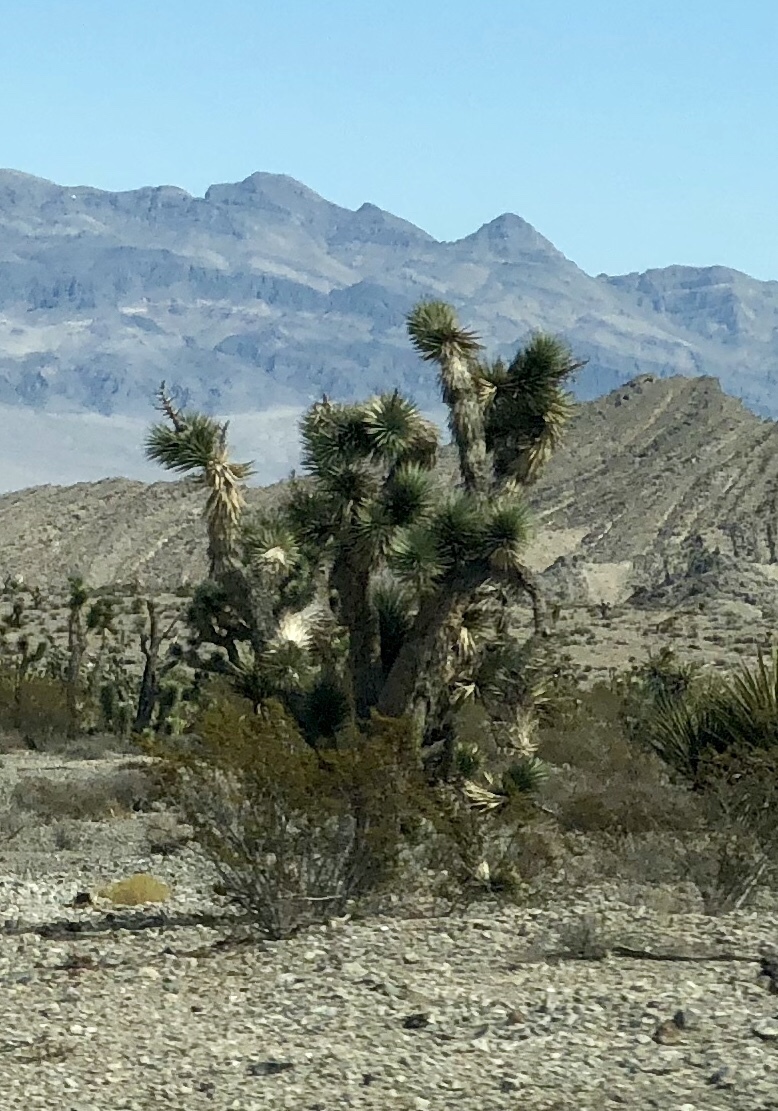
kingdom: Plantae
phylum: Tracheophyta
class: Liliopsida
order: Asparagales
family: Asparagaceae
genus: Yucca
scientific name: Yucca brevifolia
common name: Joshua tree
